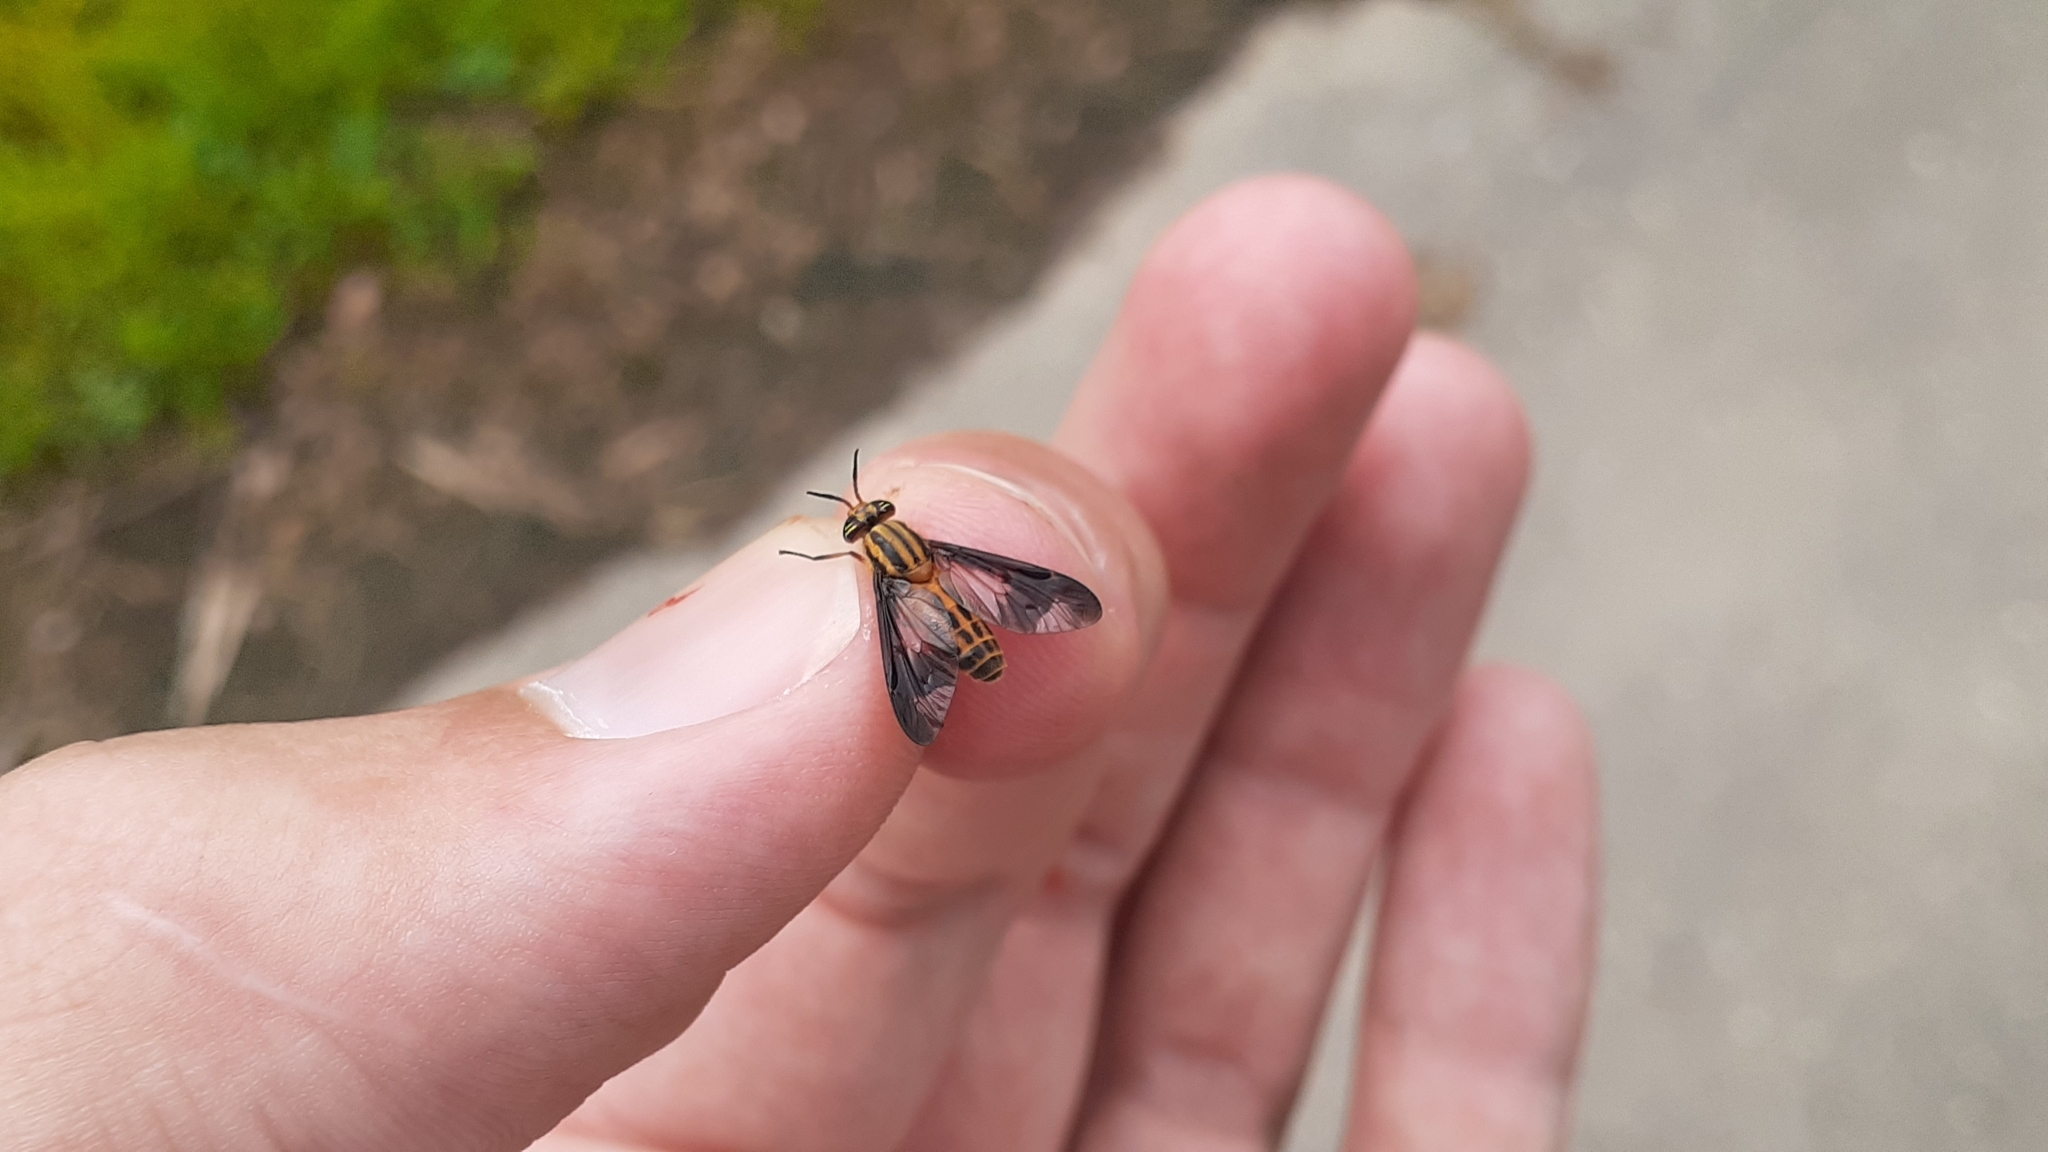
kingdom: Animalia
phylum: Arthropoda
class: Insecta
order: Diptera
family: Tabanidae
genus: Chrysops
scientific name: Chrysops vittatus
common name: Striped deer fly
